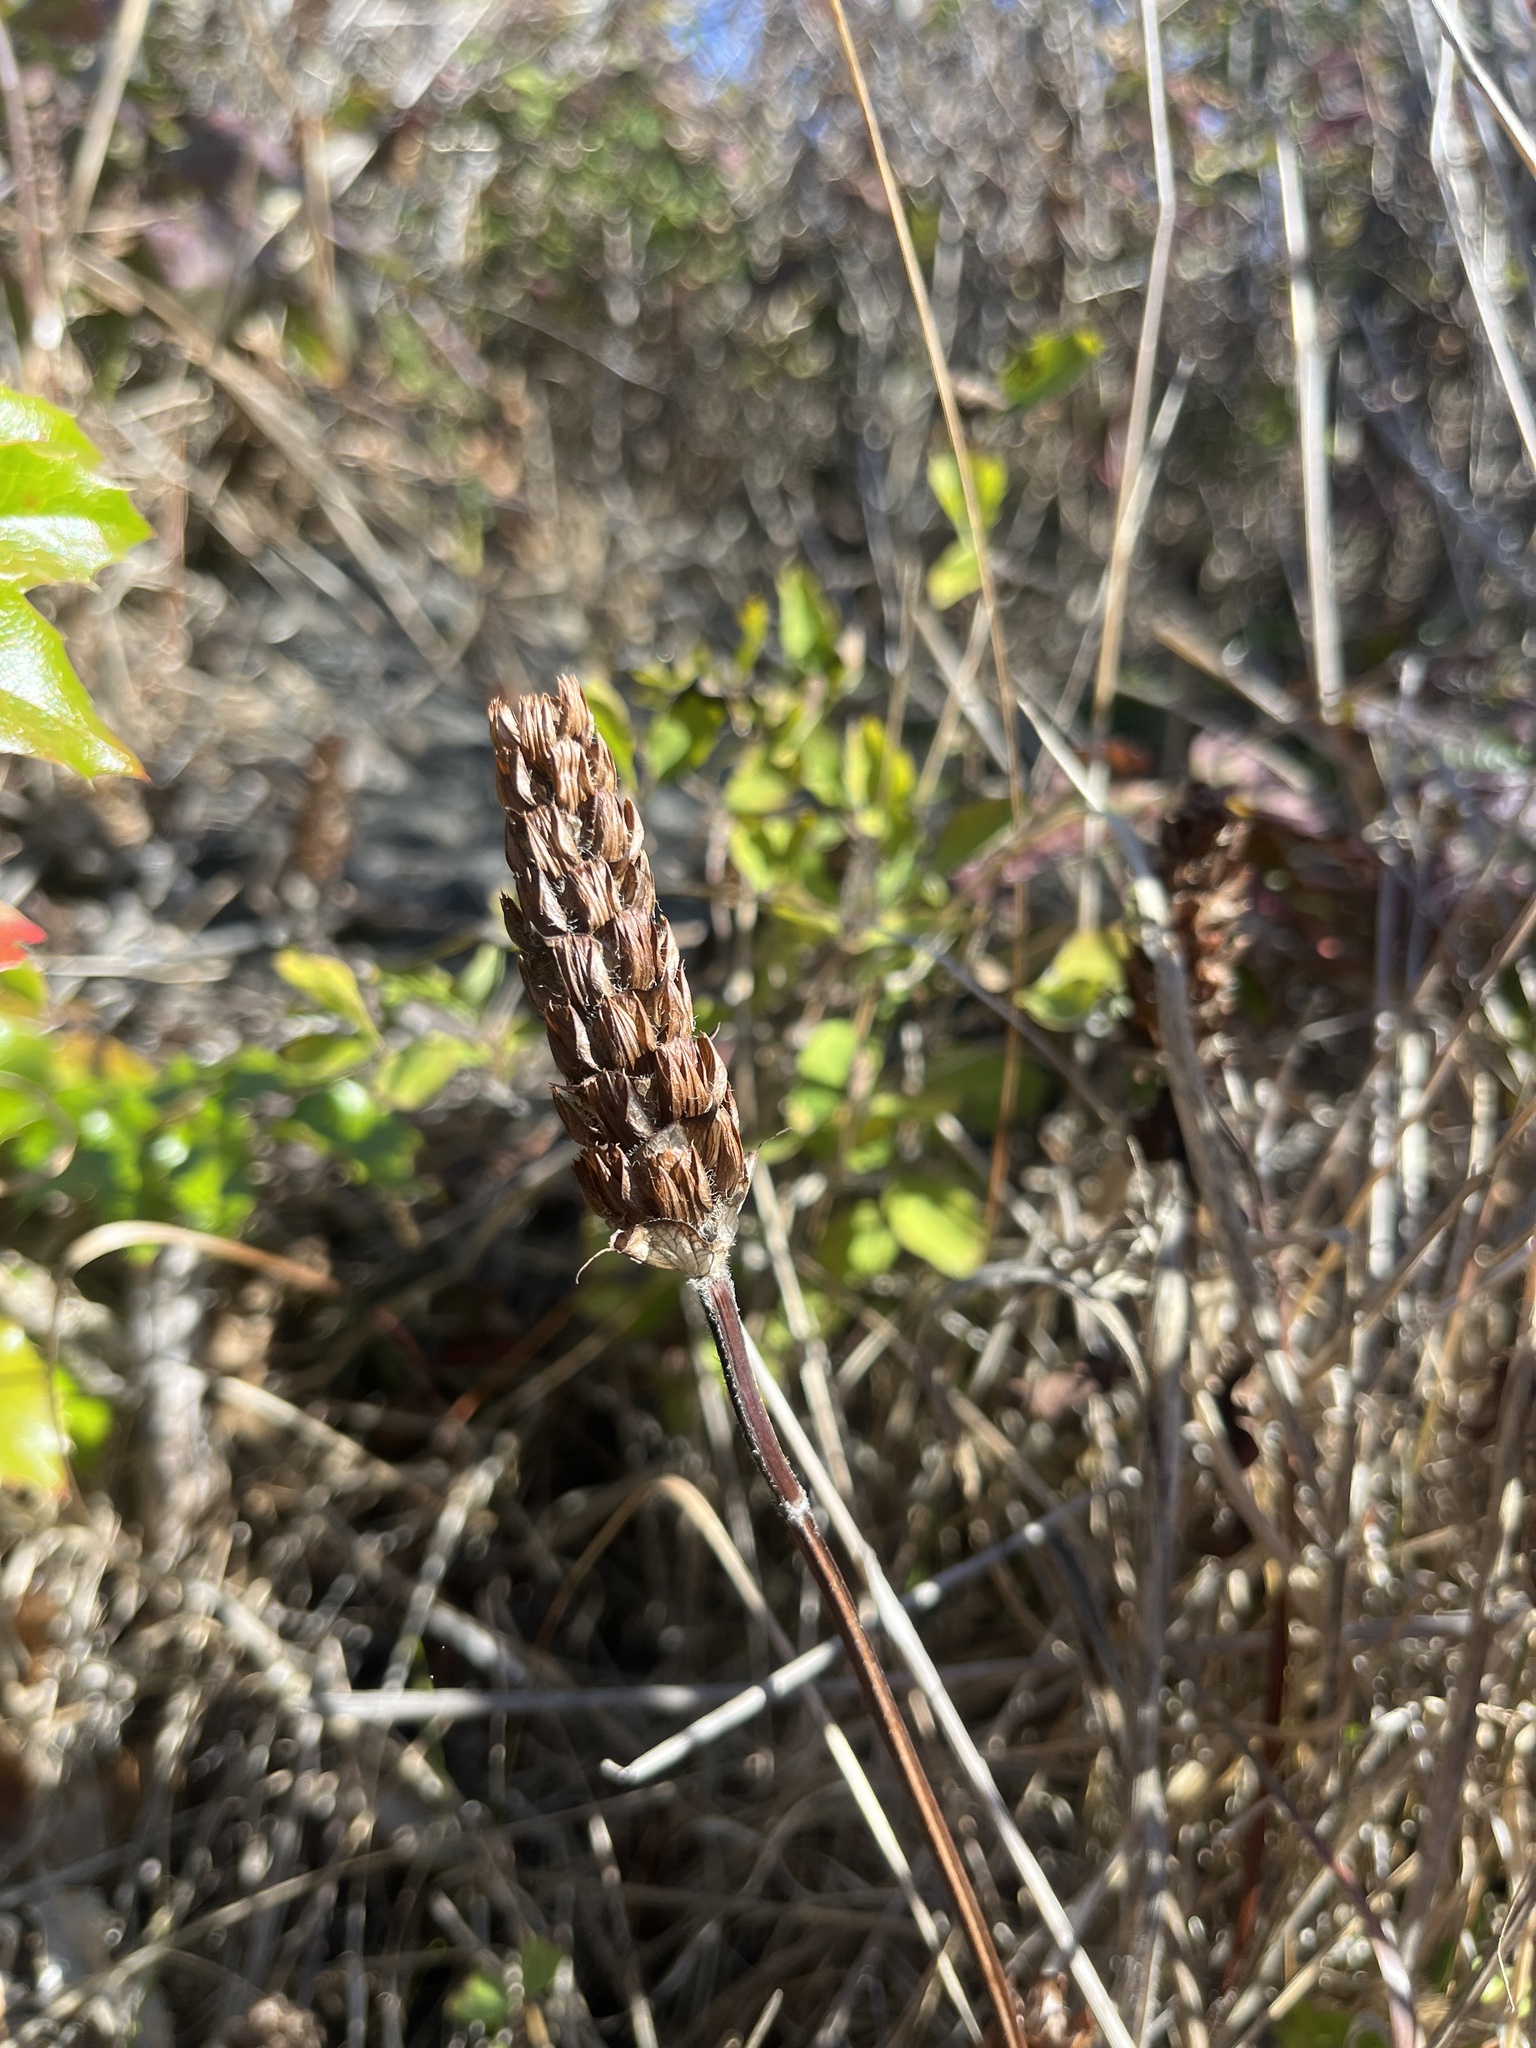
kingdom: Plantae
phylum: Tracheophyta
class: Magnoliopsida
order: Lamiales
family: Lamiaceae
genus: Prunella
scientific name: Prunella vulgaris
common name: Heal-all
